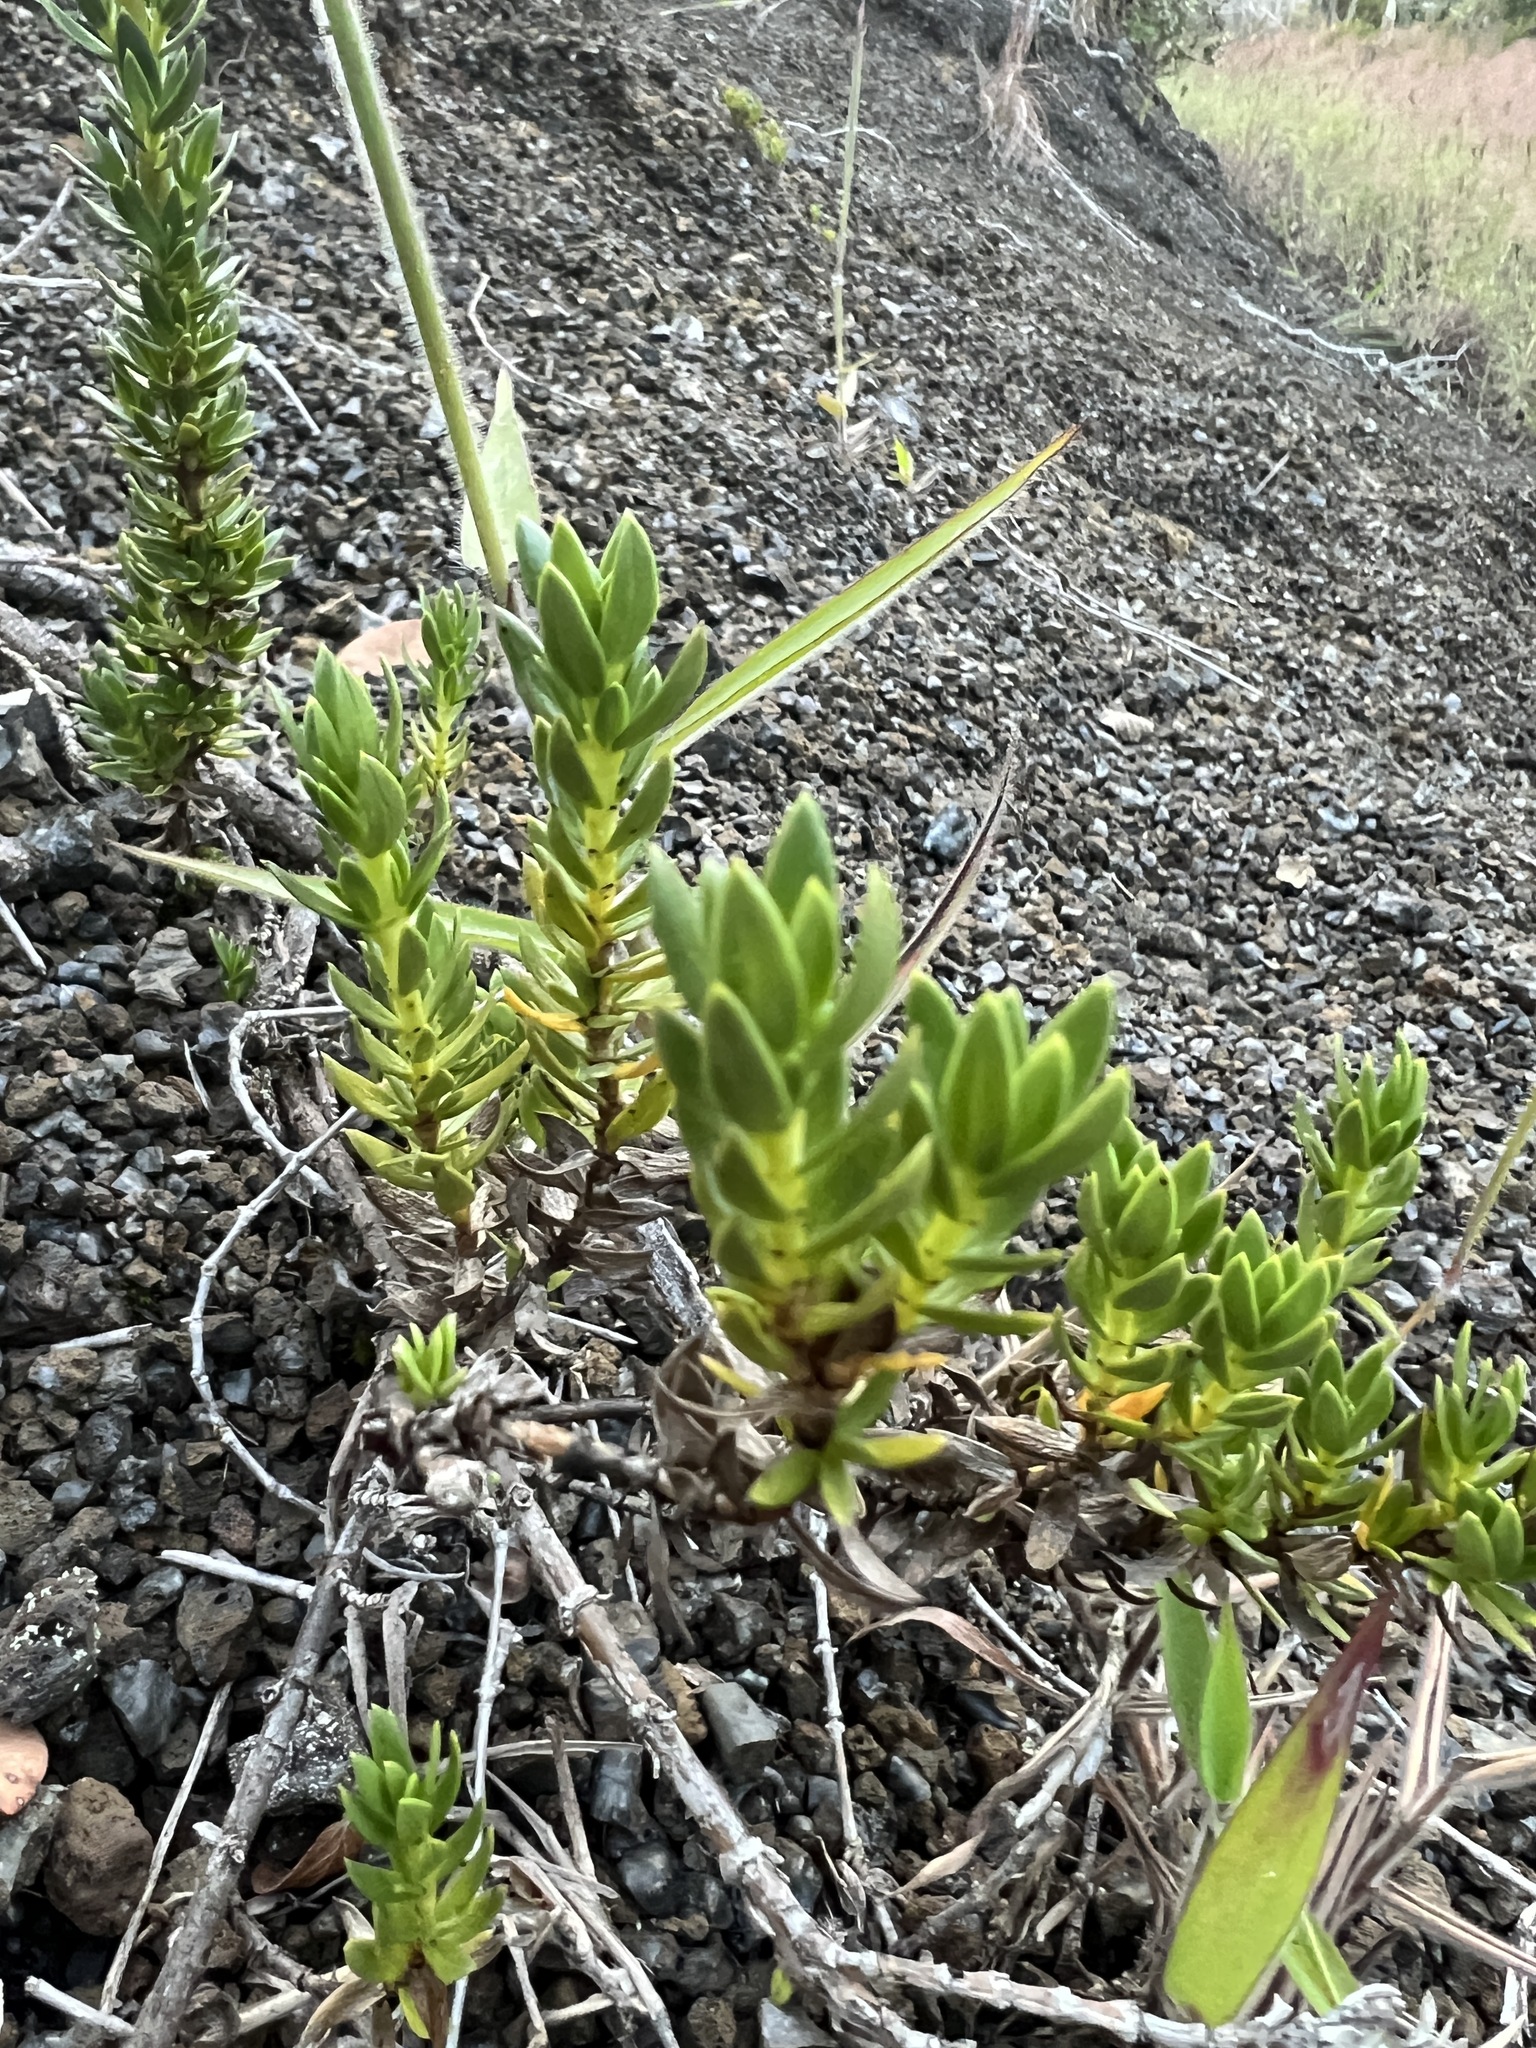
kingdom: Plantae
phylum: Tracheophyta
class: Magnoliopsida
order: Gentianales
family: Rubiaceae
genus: Coprosma
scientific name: Coprosma ernodeoides
